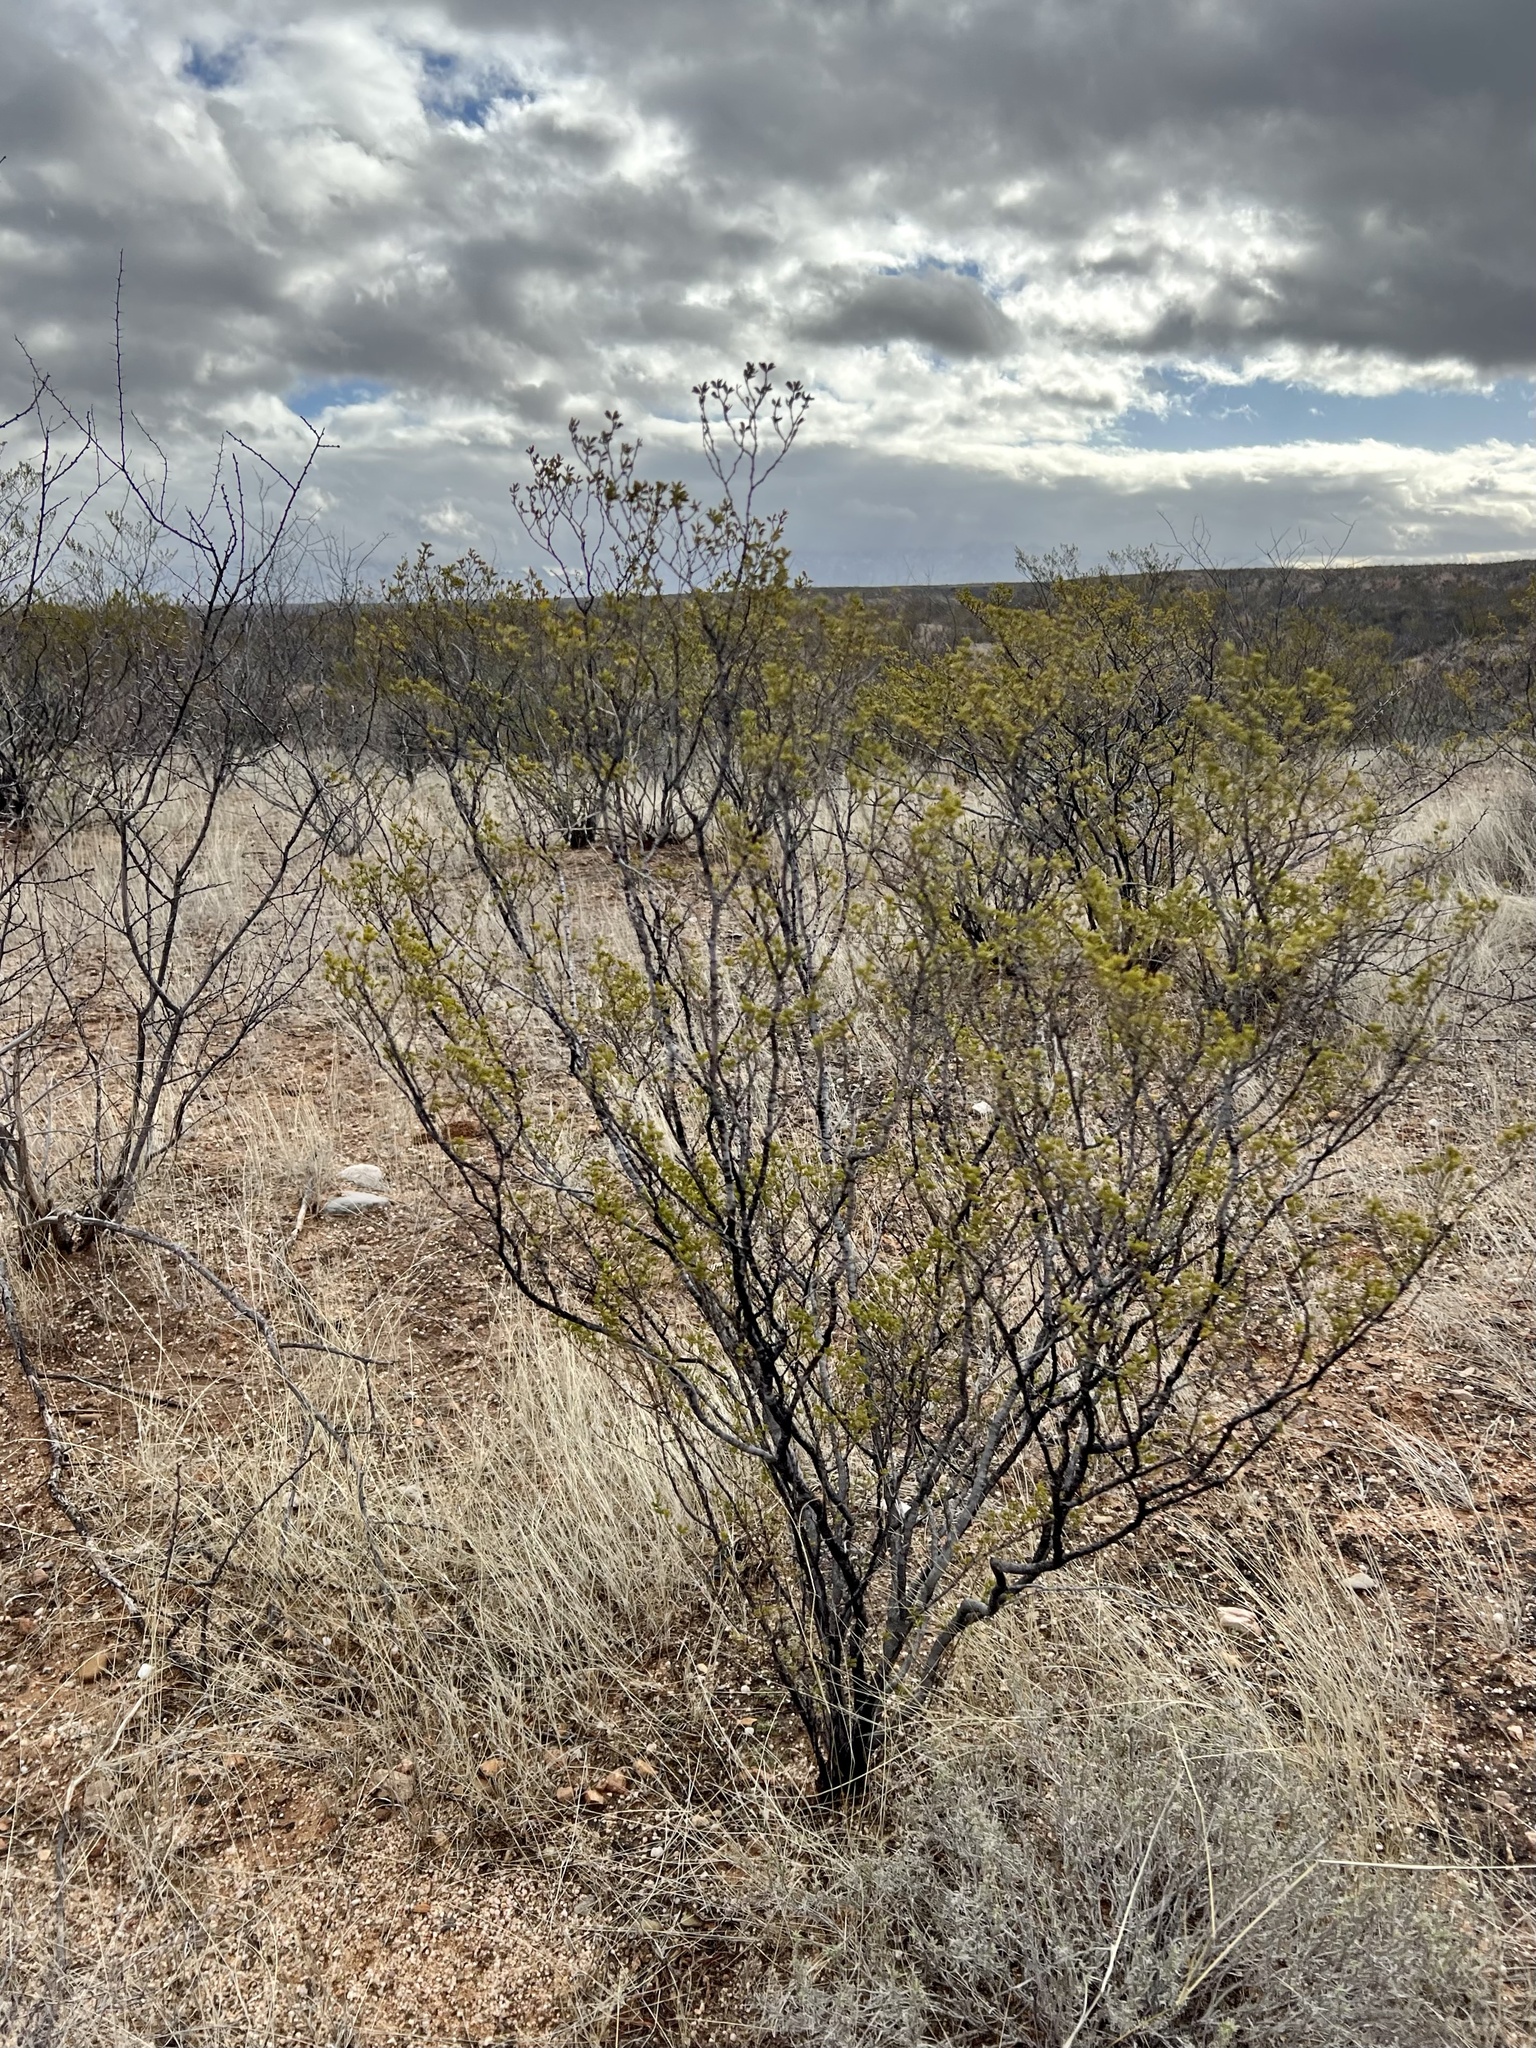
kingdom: Plantae
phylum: Tracheophyta
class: Magnoliopsida
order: Zygophyllales
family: Zygophyllaceae
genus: Larrea
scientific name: Larrea tridentata
